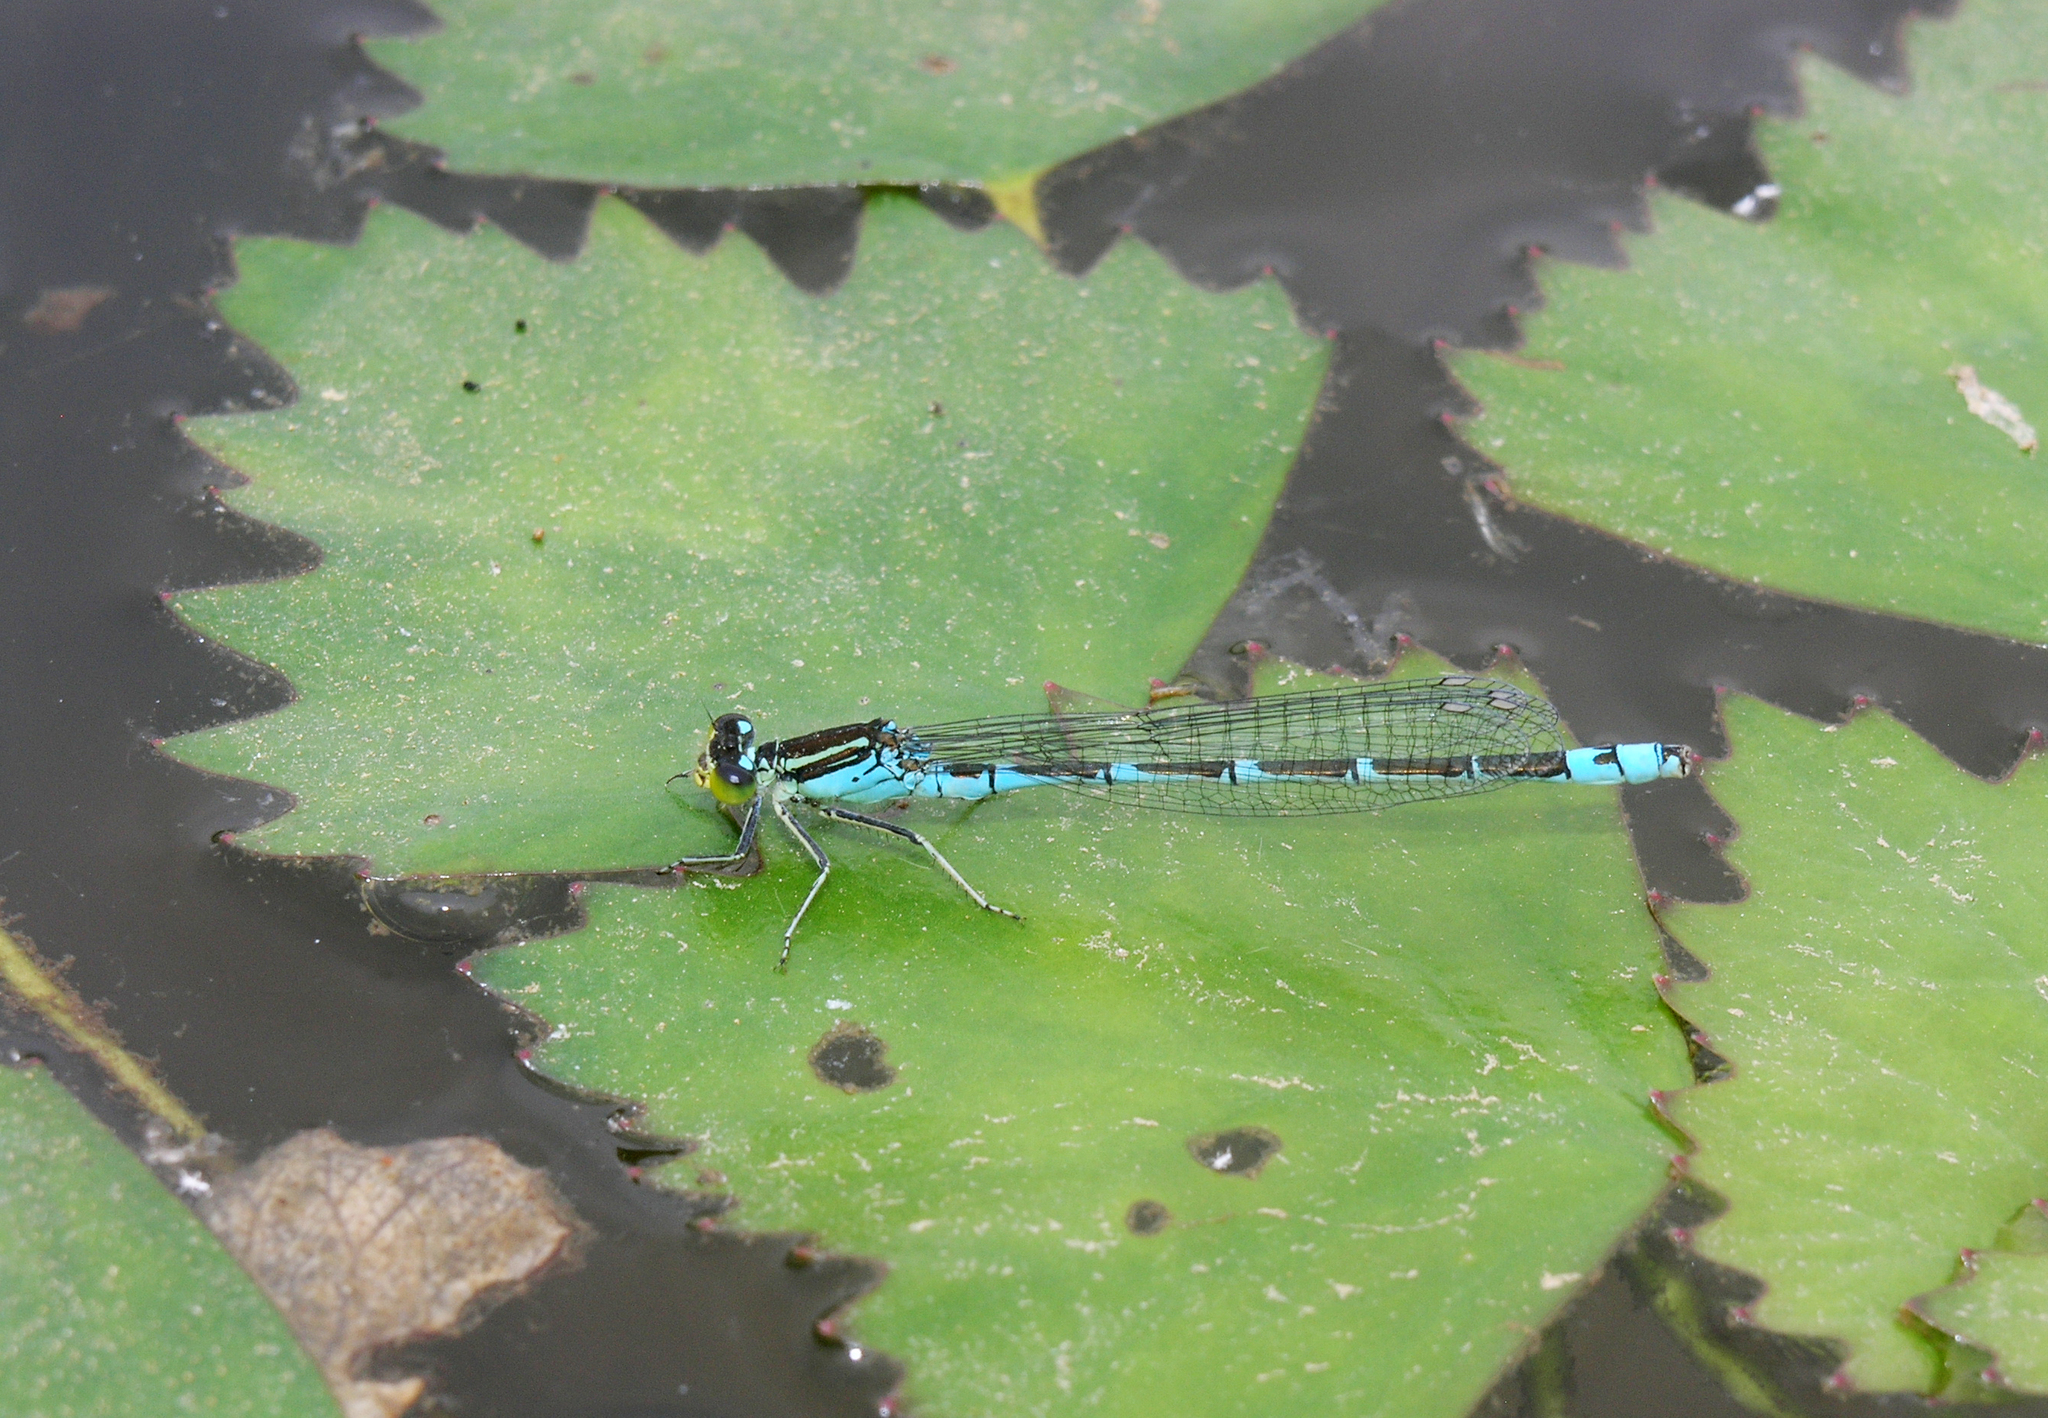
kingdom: Animalia
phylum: Arthropoda
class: Insecta
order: Odonata
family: Coenagrionidae
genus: Paracercion
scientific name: Paracercion v-nigrum
